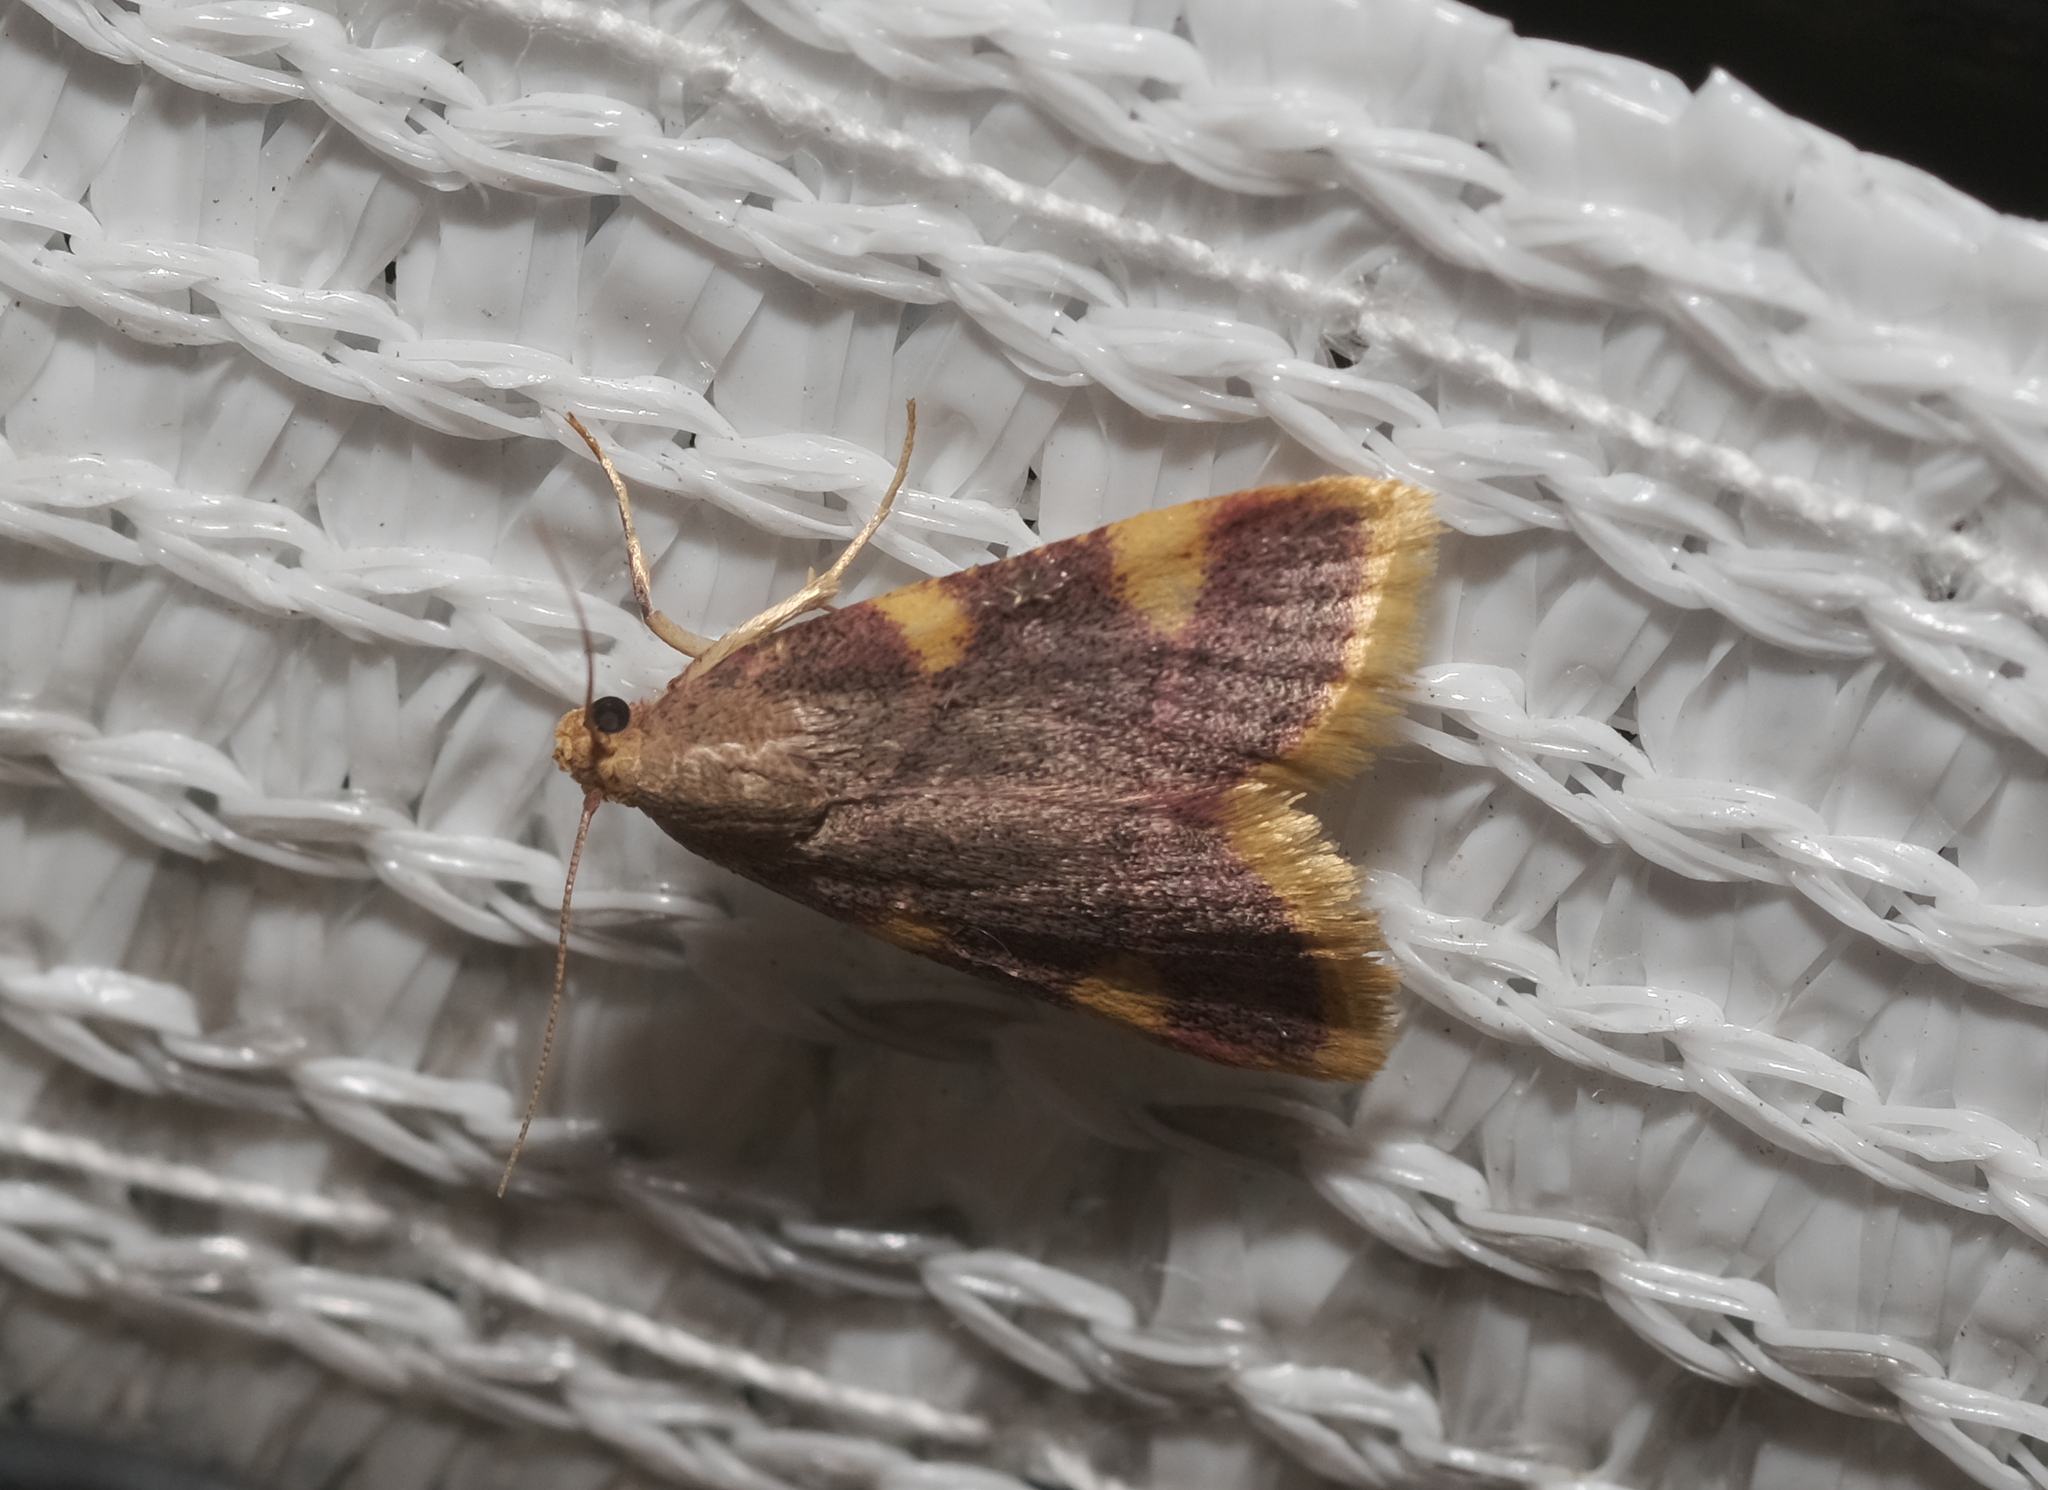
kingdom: Animalia
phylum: Arthropoda
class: Insecta
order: Lepidoptera
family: Pyralidae
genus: Hypsopygia
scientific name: Hypsopygia costalis
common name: Gold triangle
